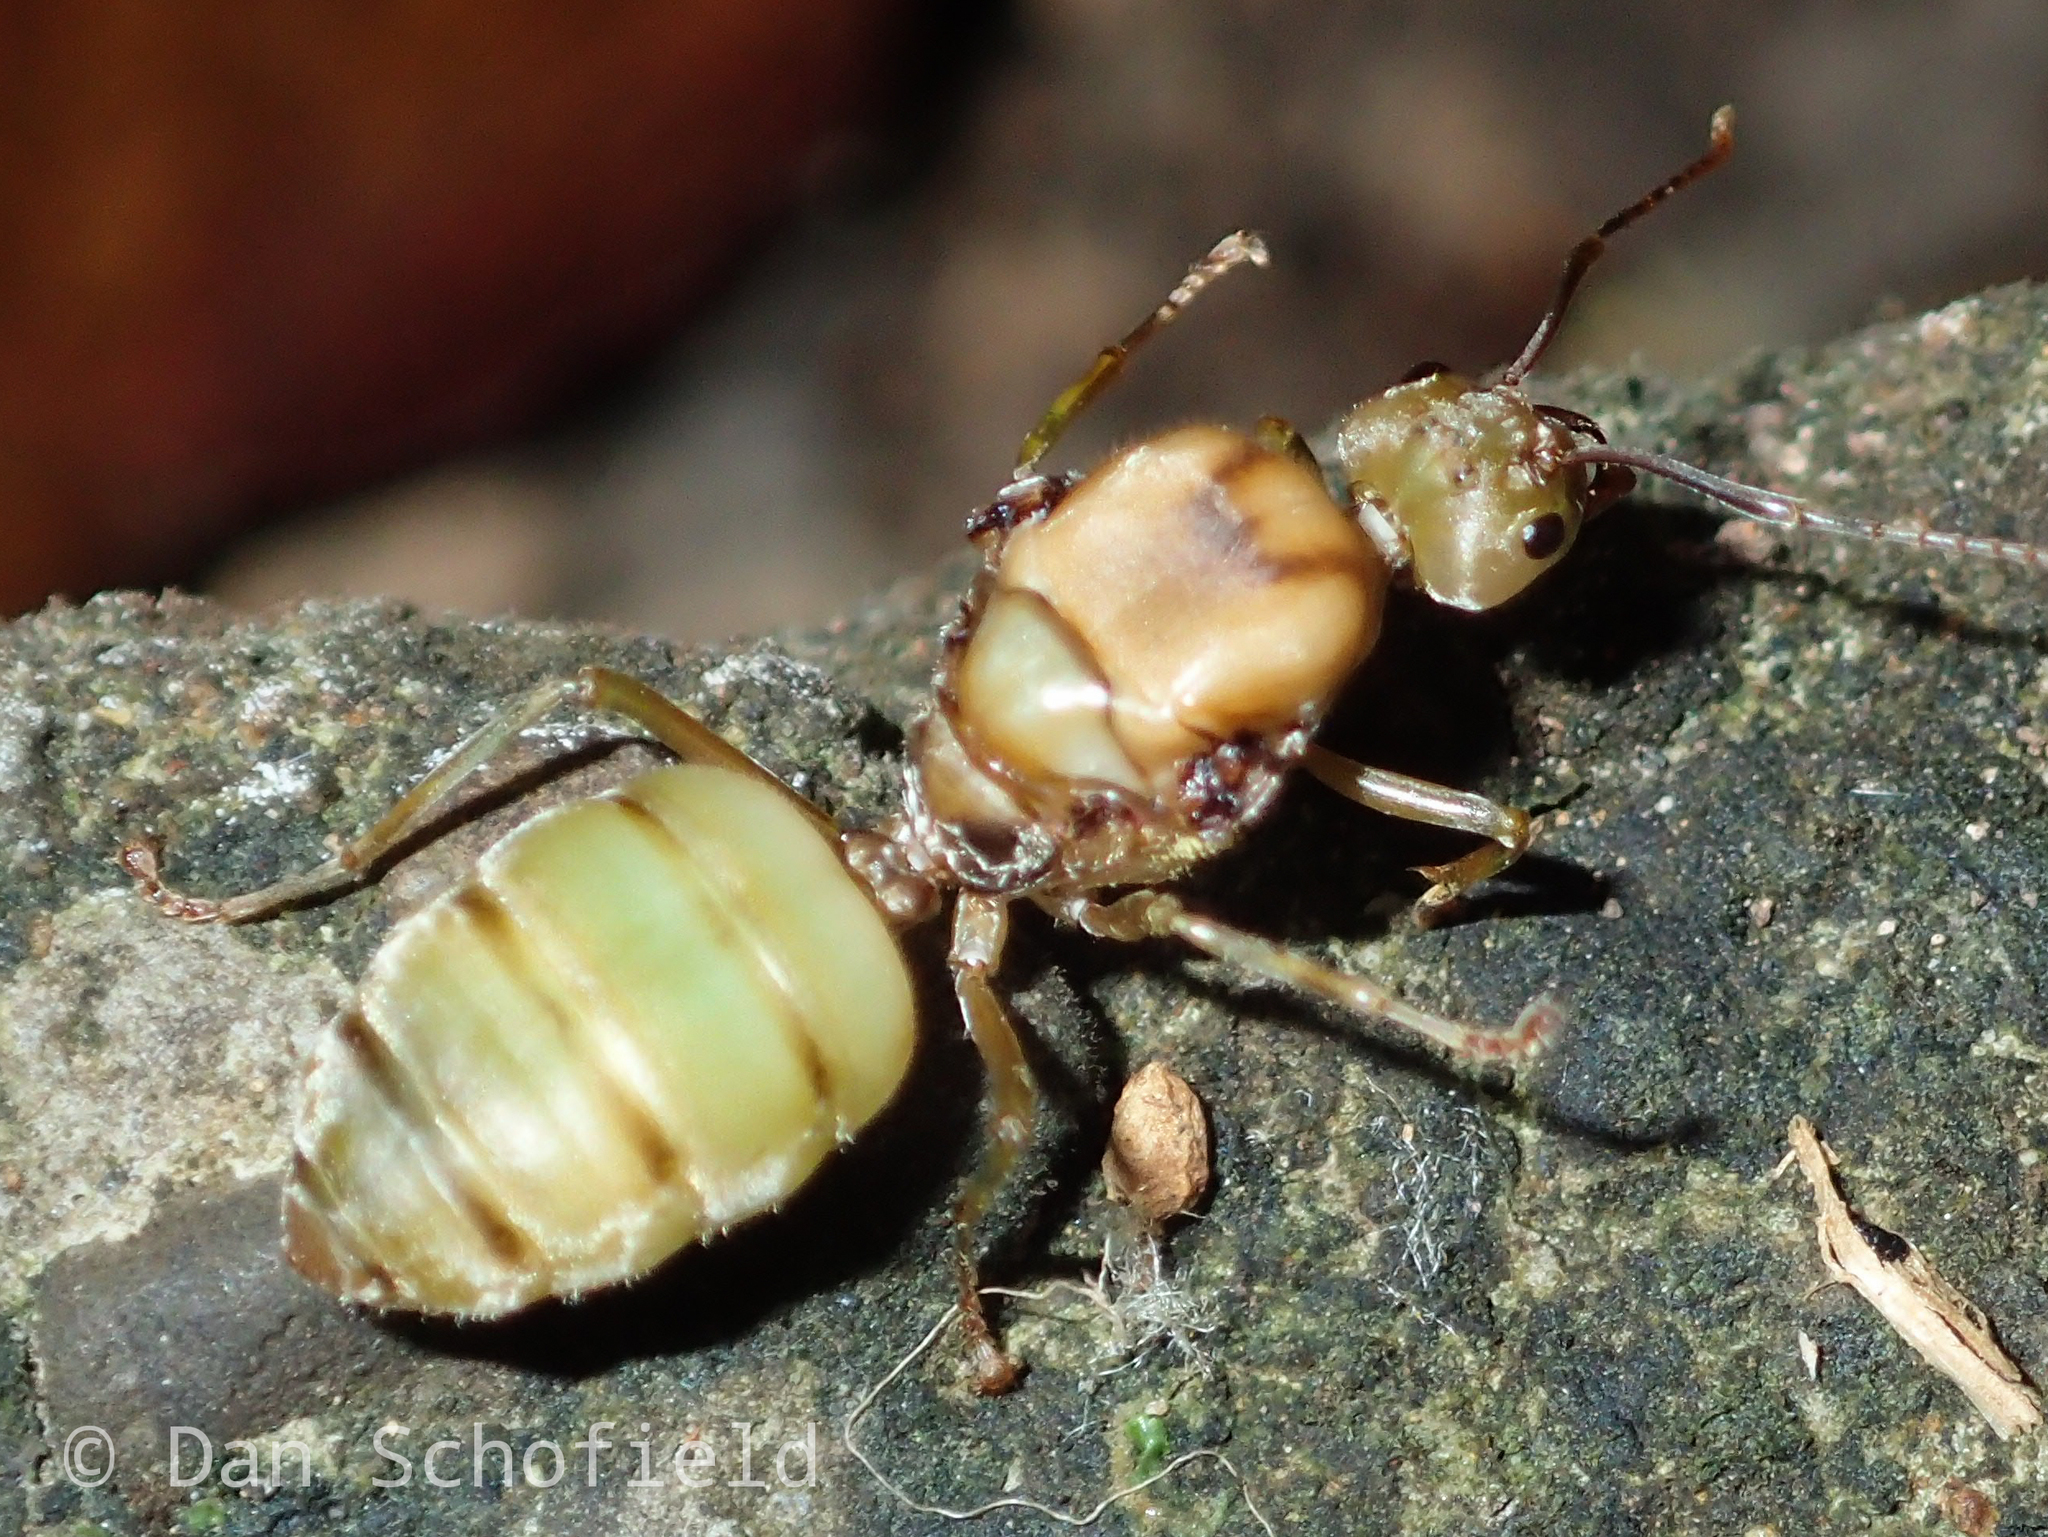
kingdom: Animalia
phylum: Arthropoda
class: Insecta
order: Hymenoptera
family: Formicidae
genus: Oecophylla
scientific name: Oecophylla smaragdina
